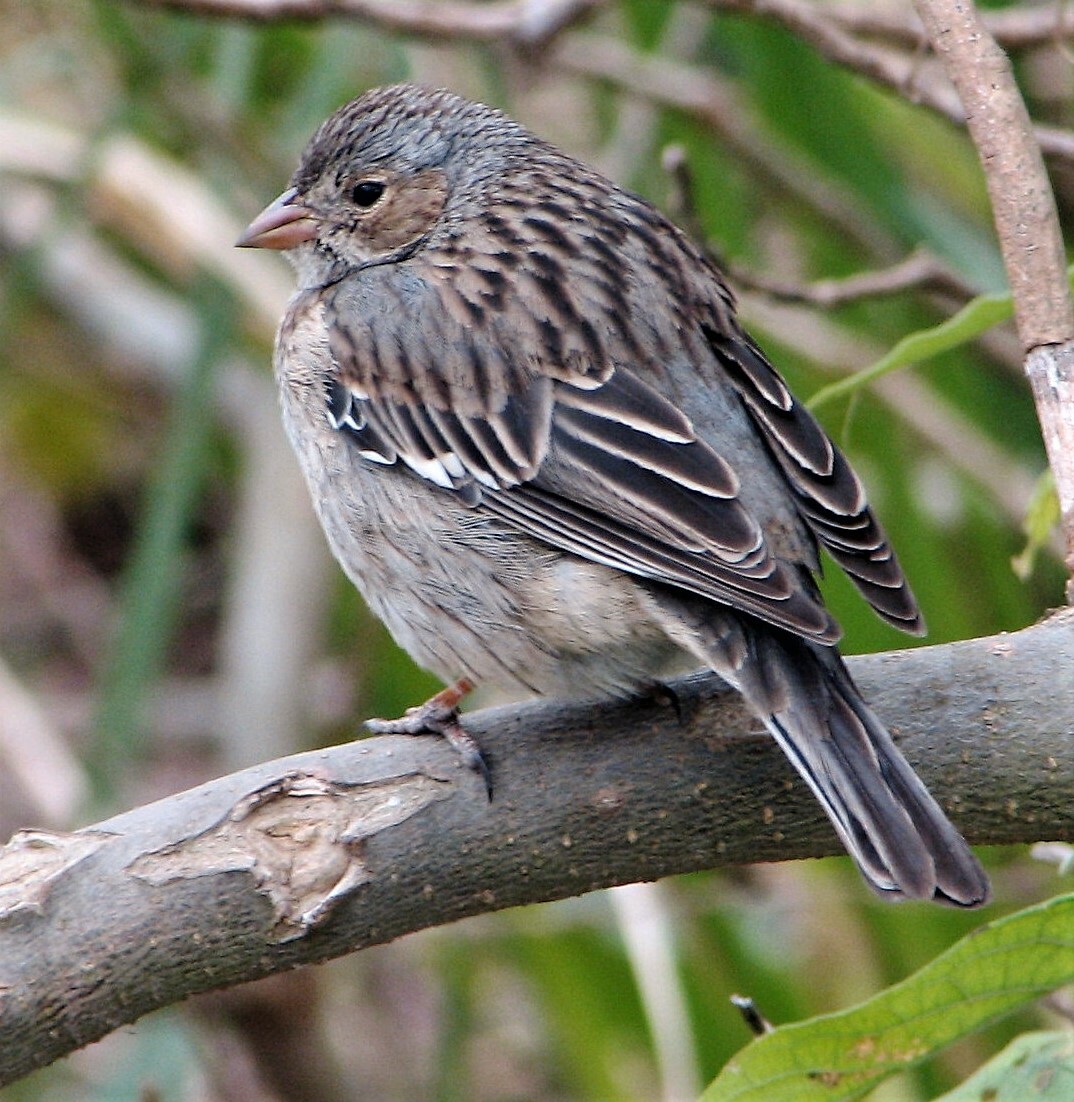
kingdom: Animalia
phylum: Chordata
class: Aves
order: Passeriformes
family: Thraupidae
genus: Rhopospina
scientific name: Rhopospina fruticeti
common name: Mourning sierra finch
